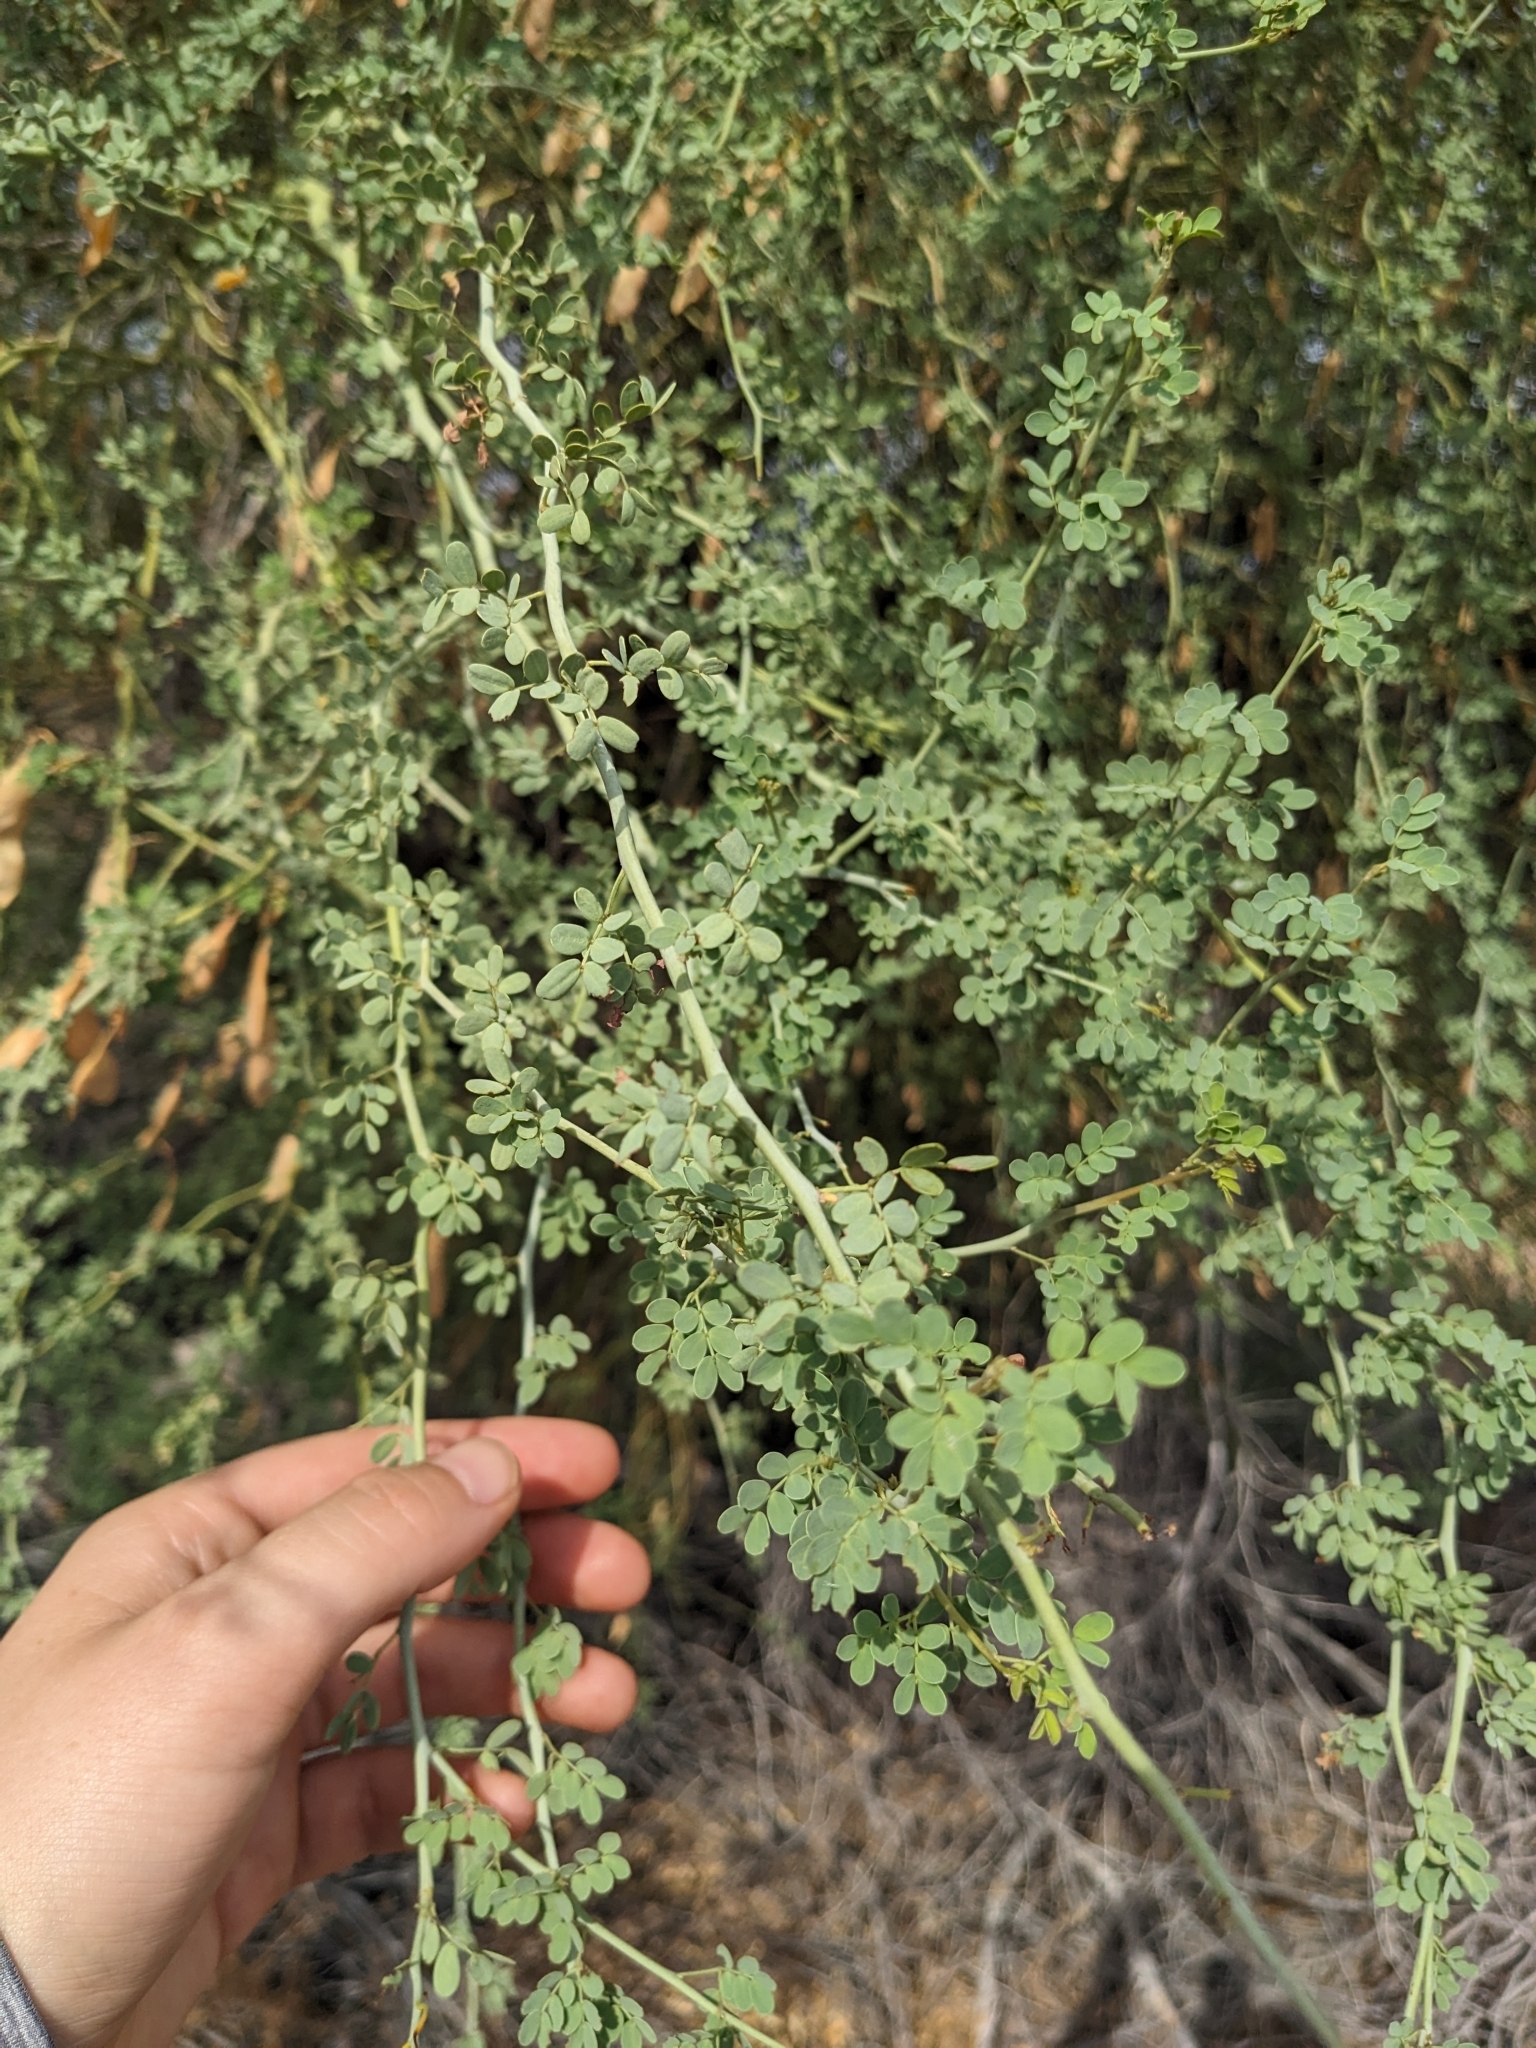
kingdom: Plantae
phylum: Tracheophyta
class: Magnoliopsida
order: Fabales
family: Fabaceae
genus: Parkinsonia
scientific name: Parkinsonia florida
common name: Blue paloverde
